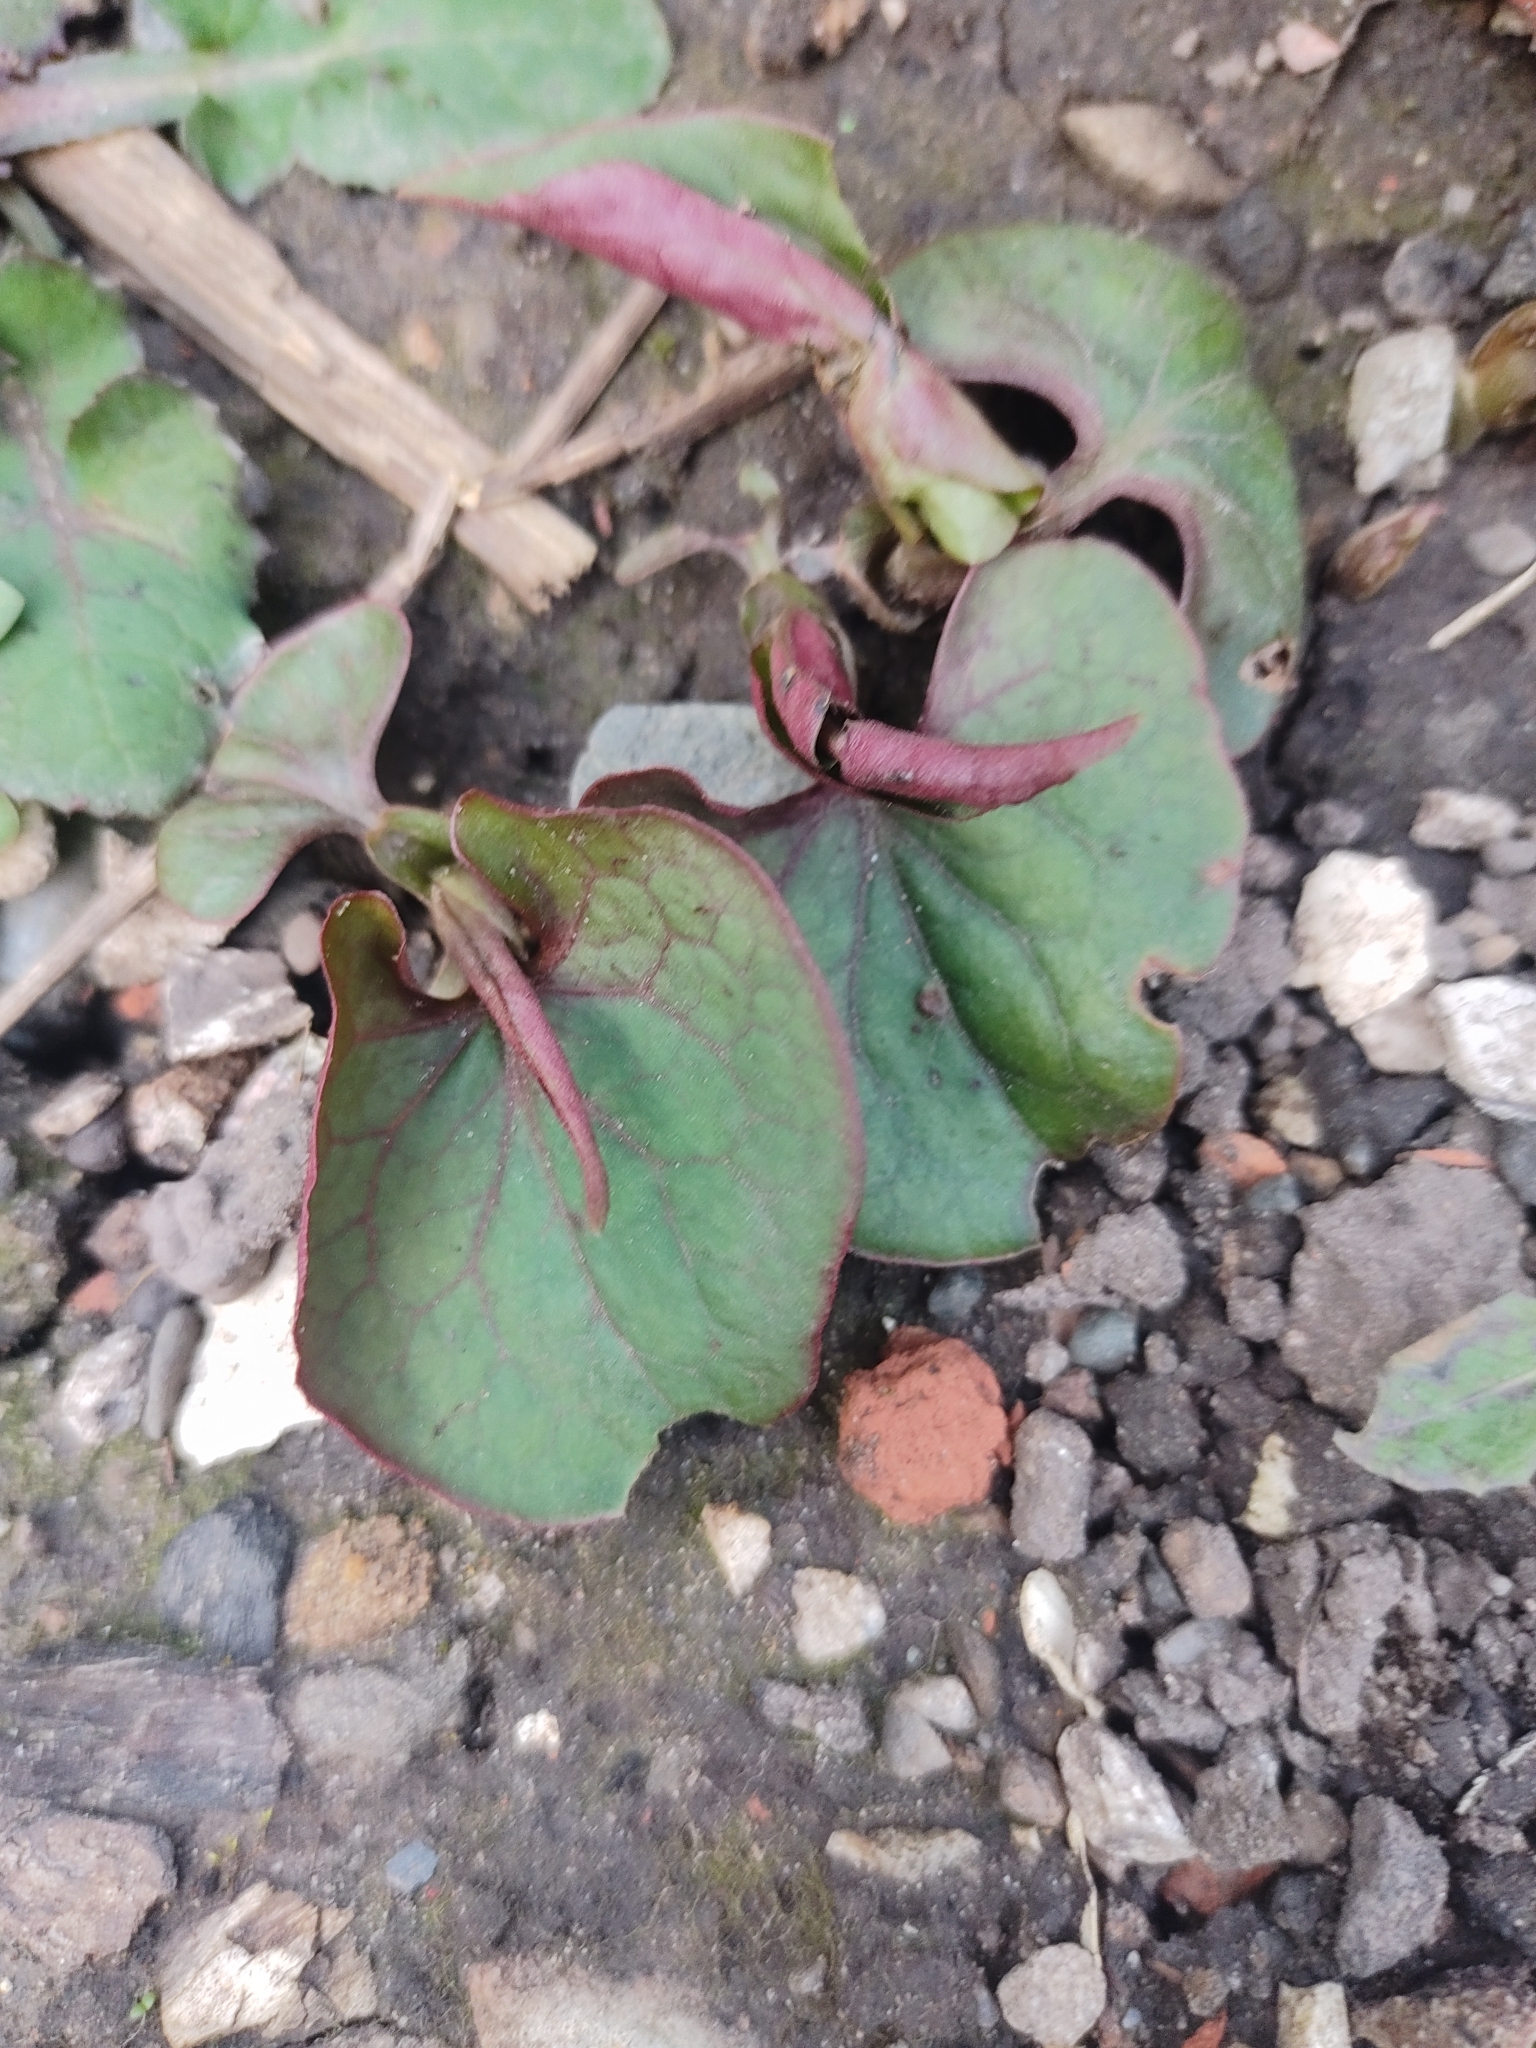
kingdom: Plantae
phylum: Tracheophyta
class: Magnoliopsida
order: Piperales
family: Saururaceae
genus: Houttuynia
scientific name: Houttuynia cordata
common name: Chameleon
